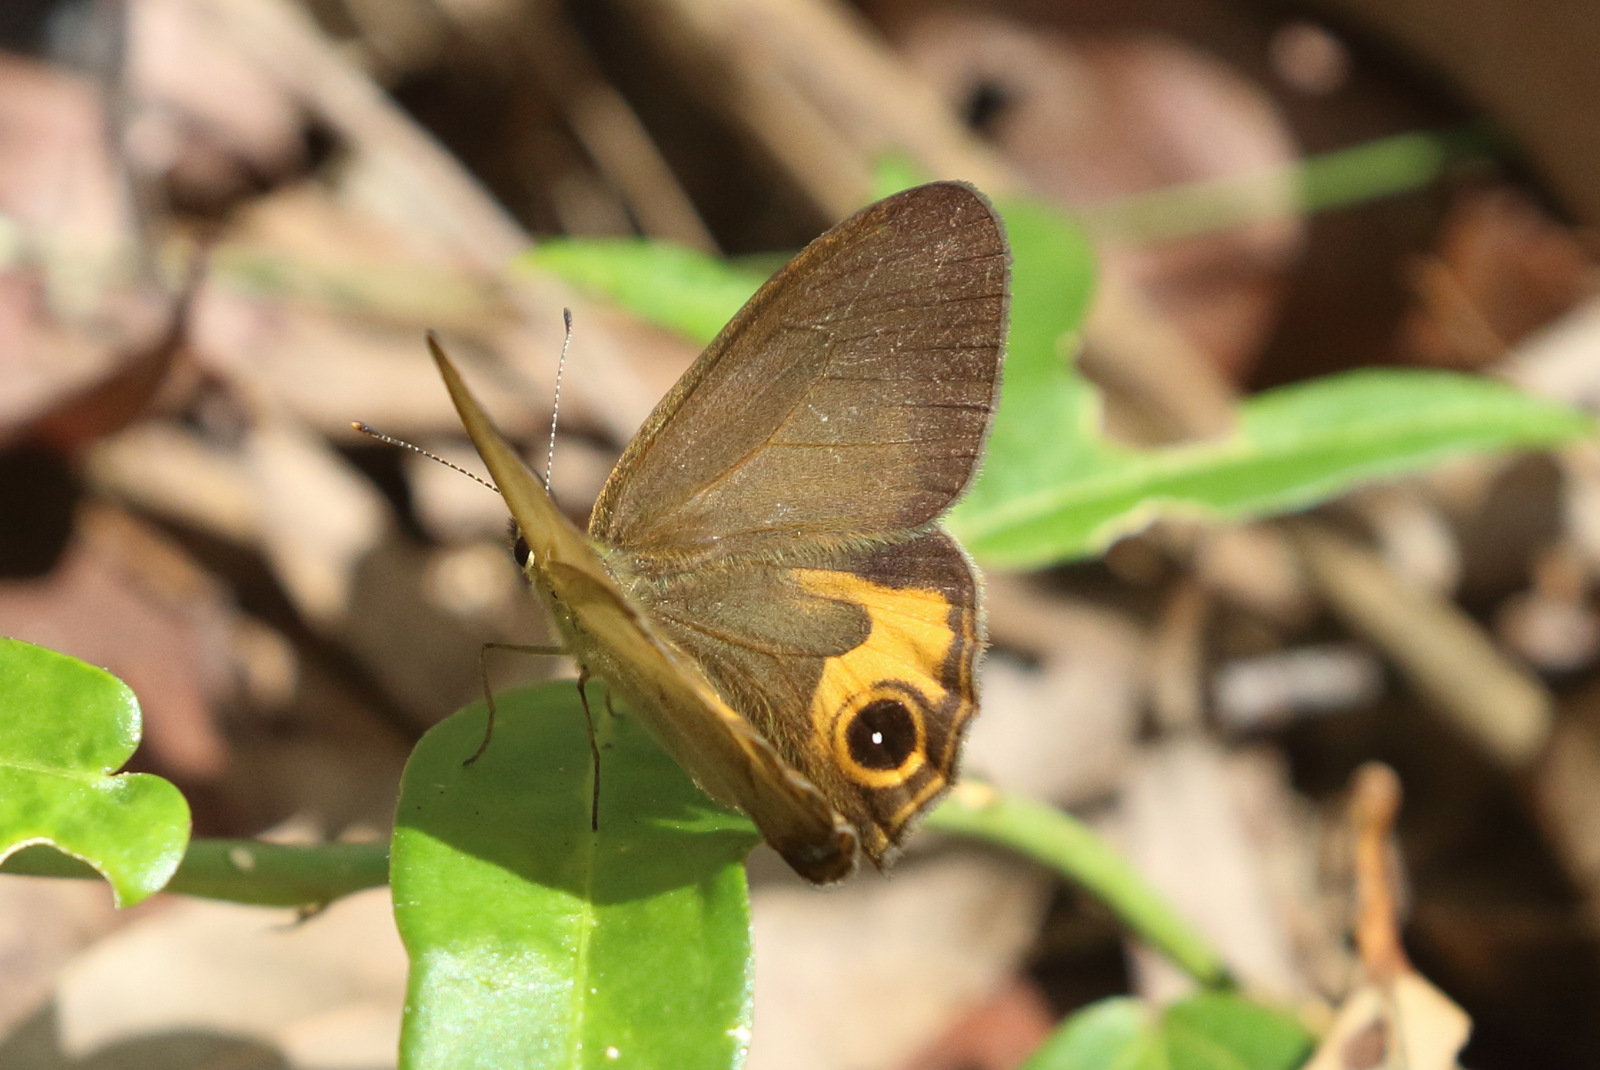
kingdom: Animalia
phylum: Arthropoda
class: Insecta
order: Lepidoptera
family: Nymphalidae
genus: Hypocysta
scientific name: Hypocysta metirius
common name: Brown ringlet
